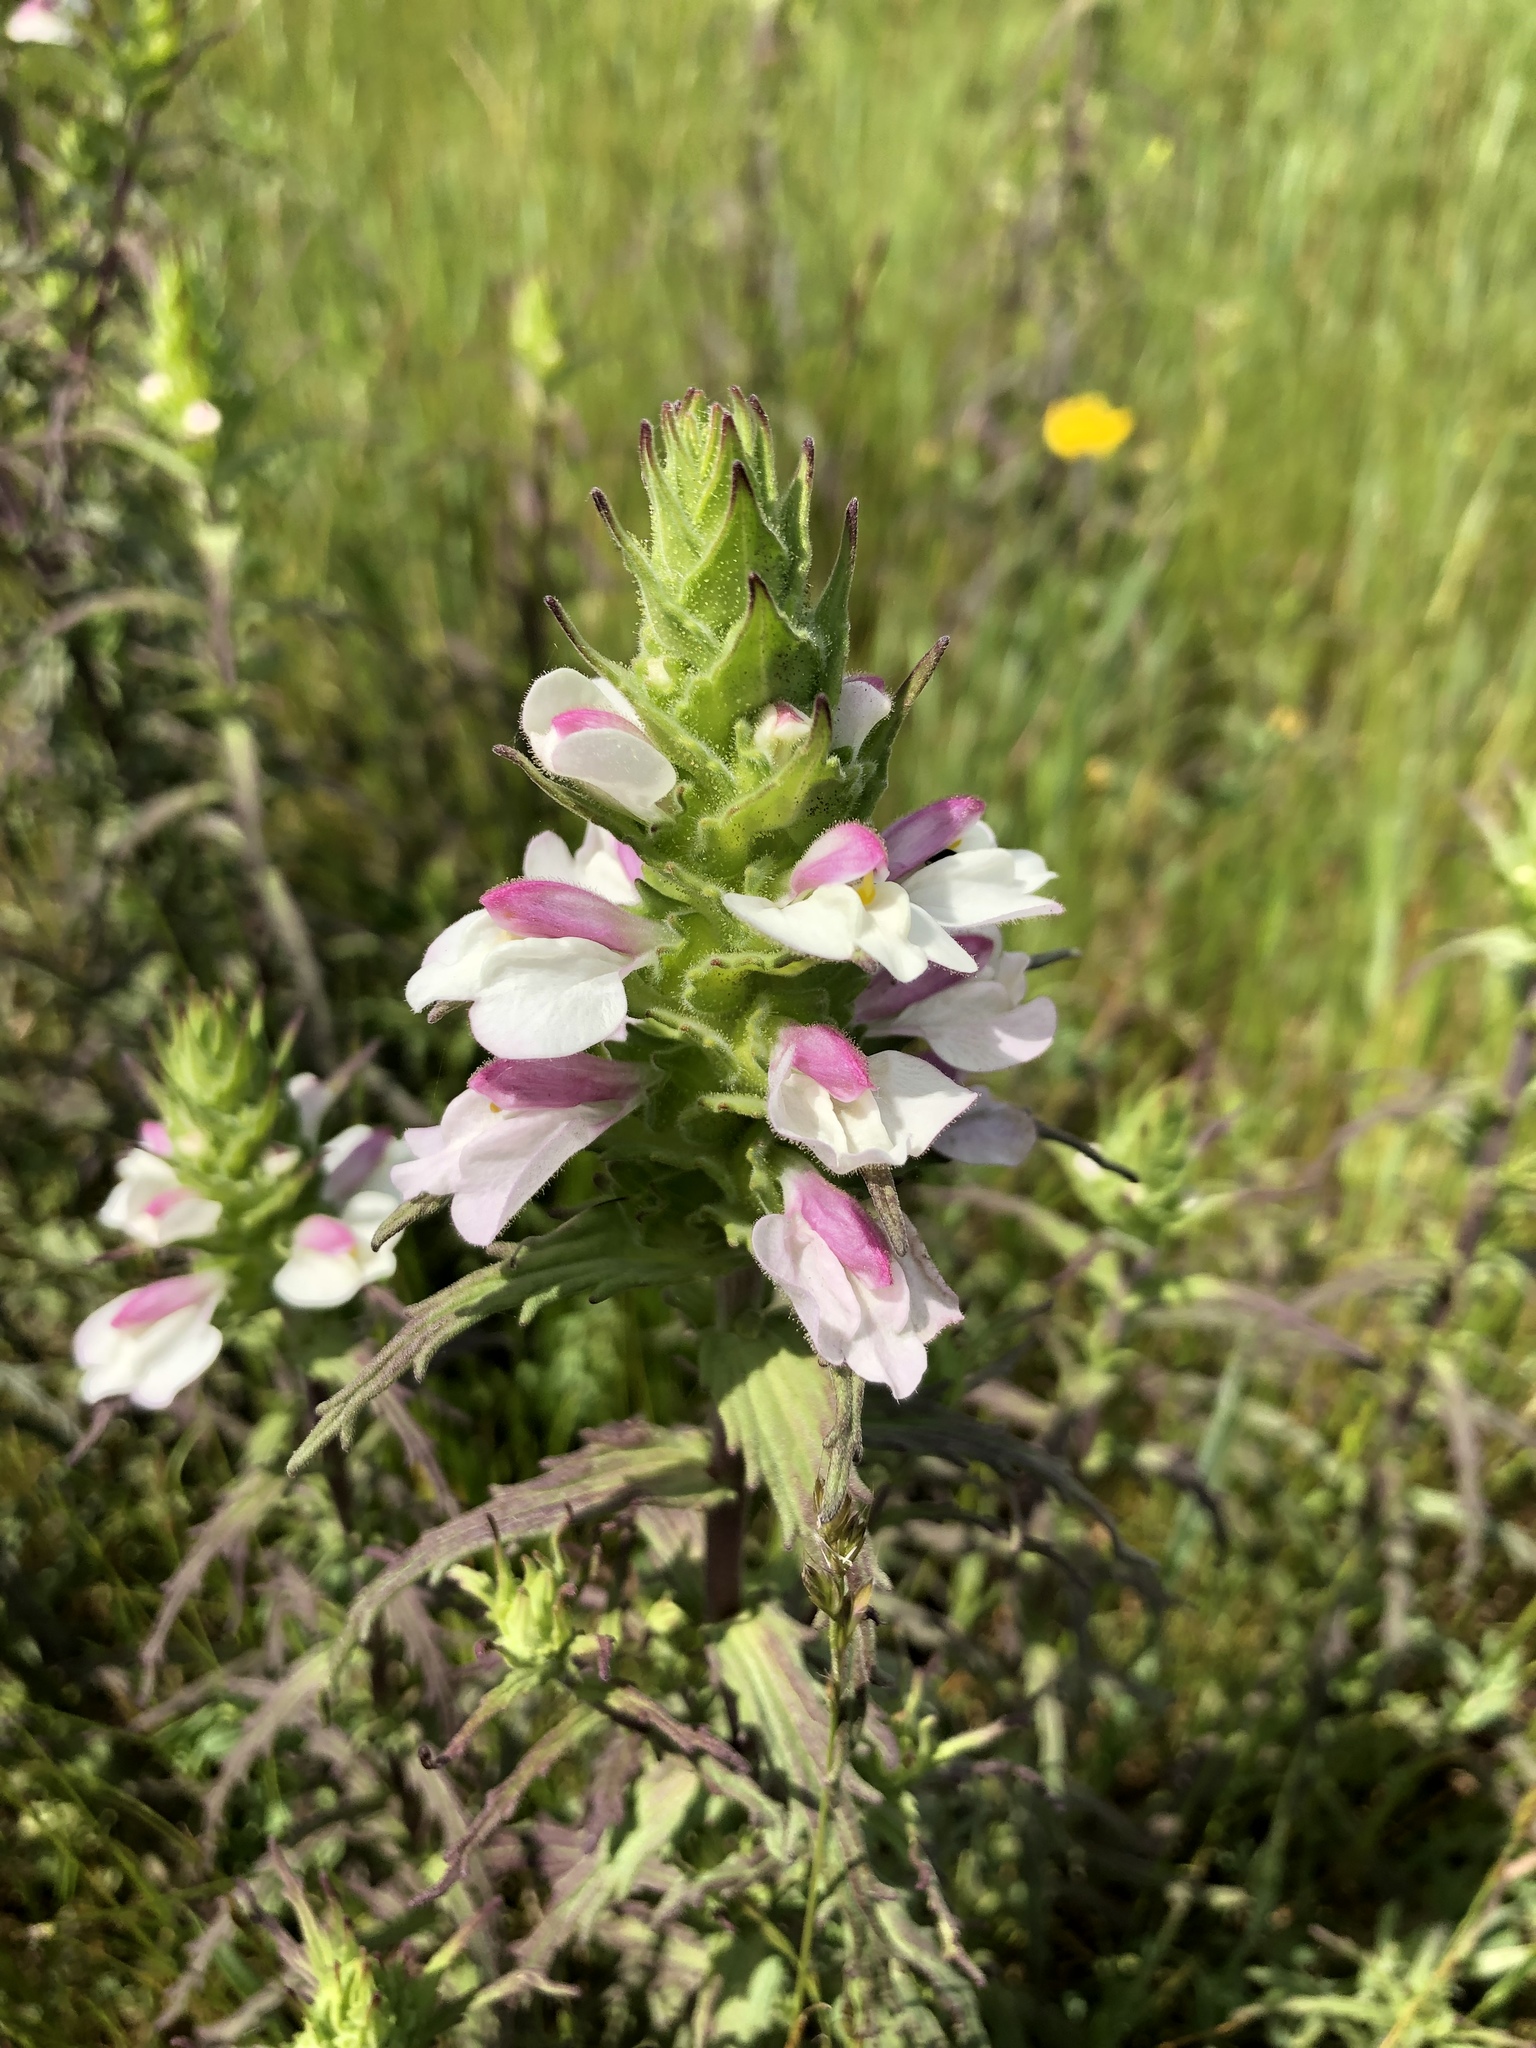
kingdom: Plantae
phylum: Tracheophyta
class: Magnoliopsida
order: Lamiales
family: Orobanchaceae
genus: Bellardia
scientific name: Bellardia trixago
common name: Mediterranean lineseed
